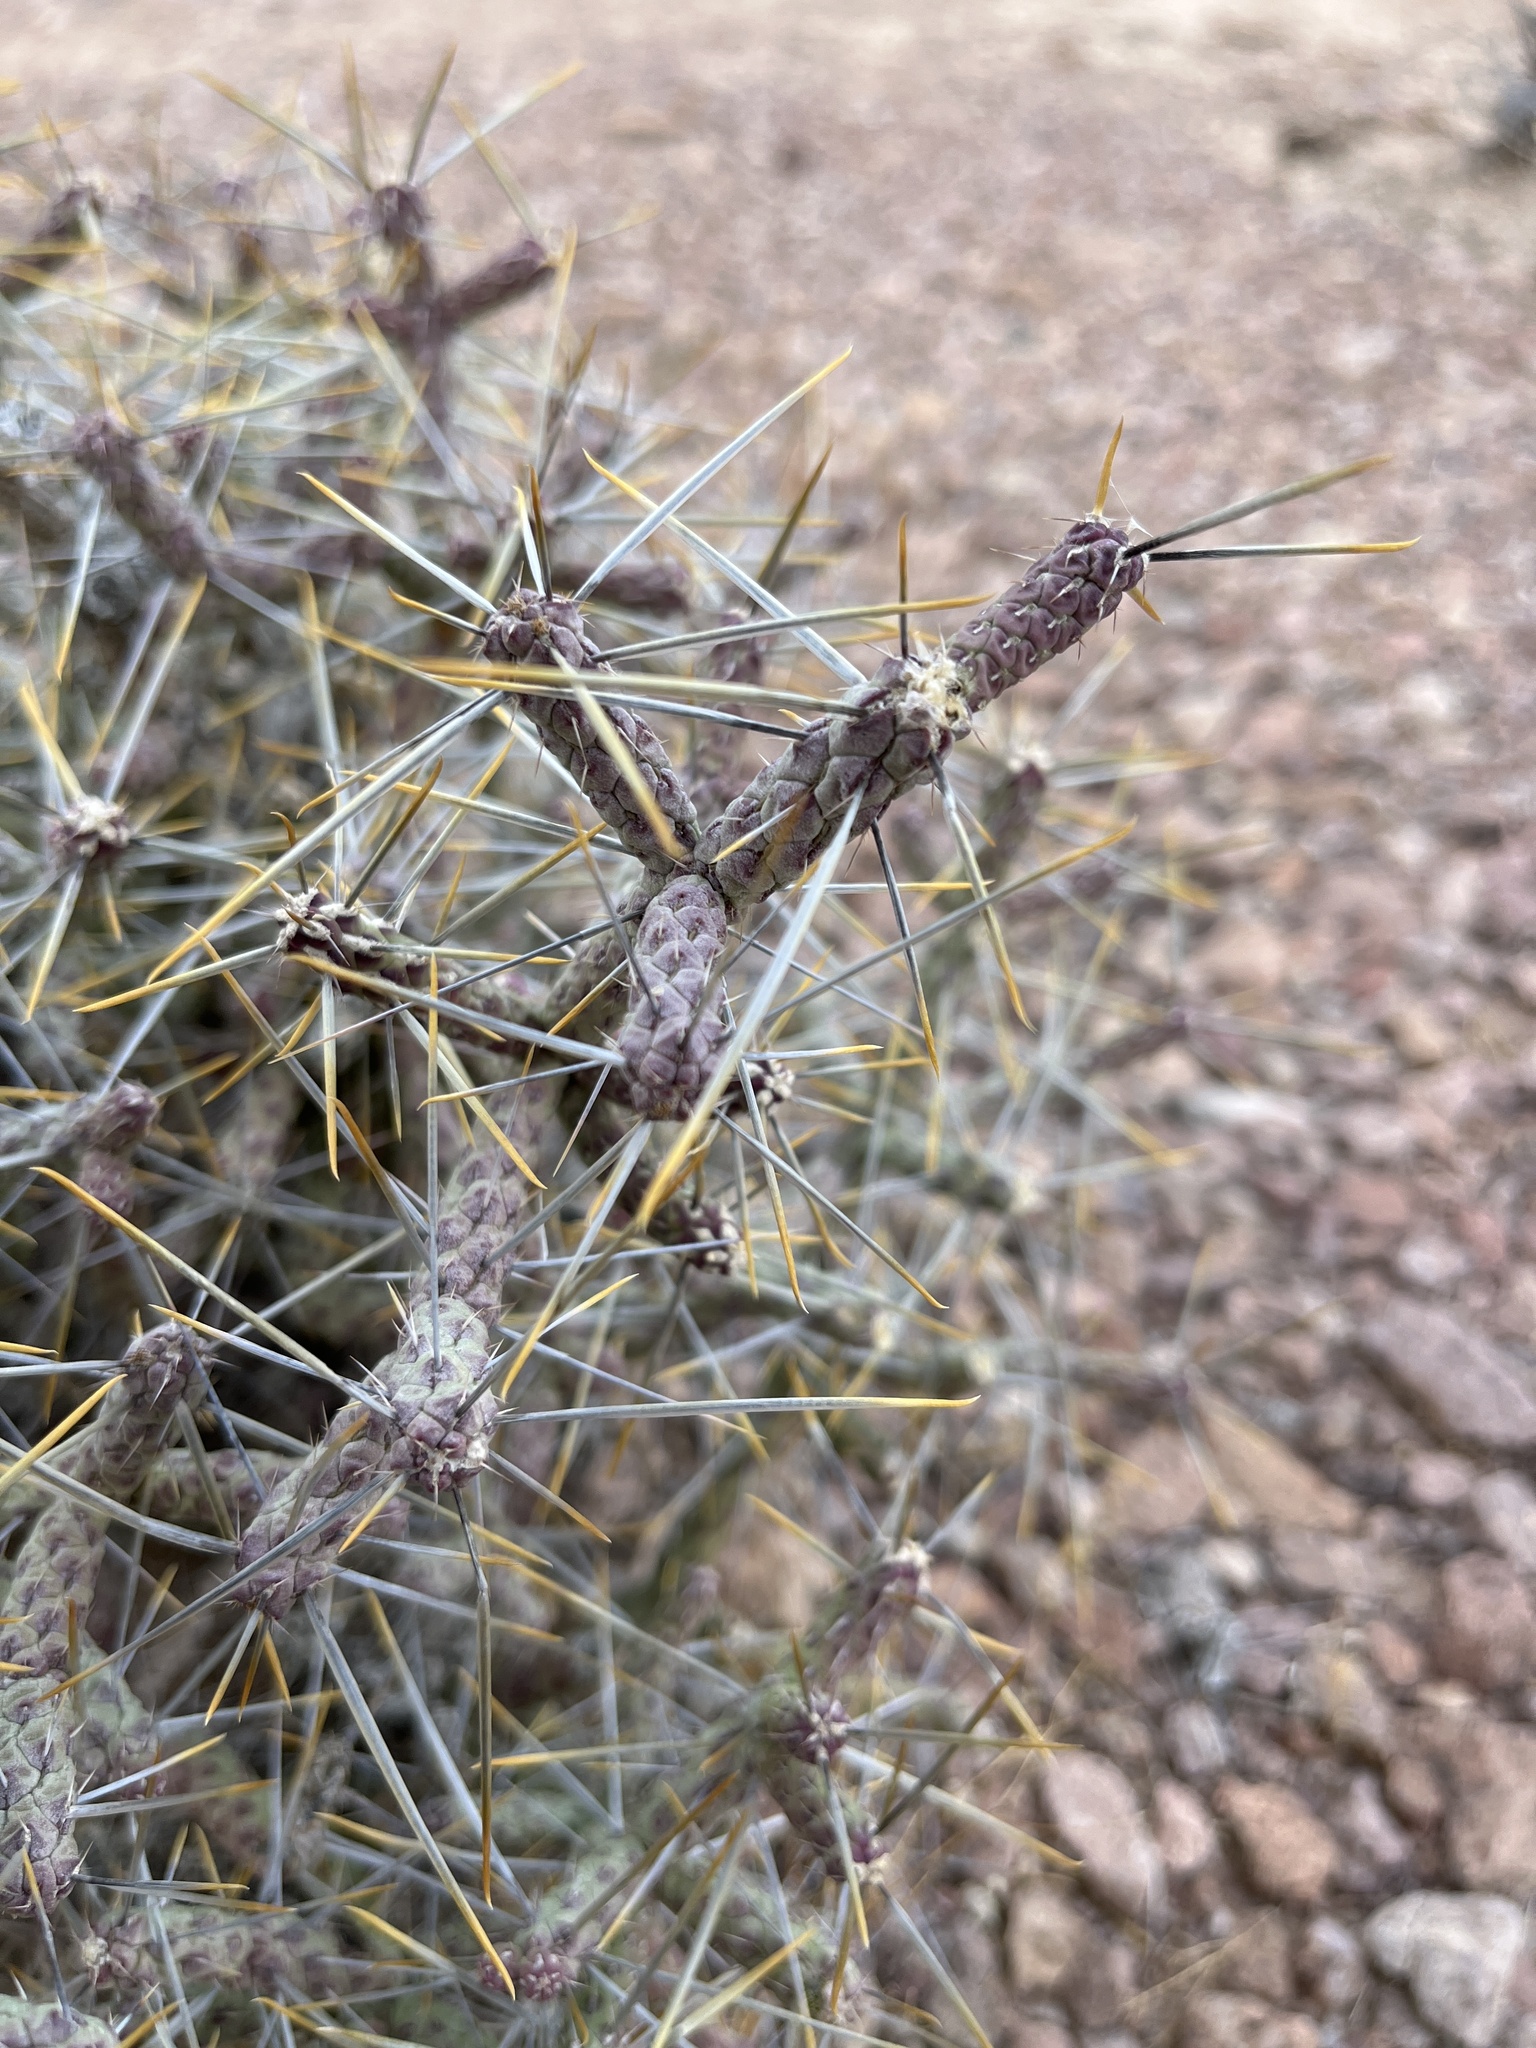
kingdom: Plantae
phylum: Tracheophyta
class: Magnoliopsida
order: Caryophyllales
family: Cactaceae
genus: Cylindropuntia
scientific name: Cylindropuntia ramosissima
